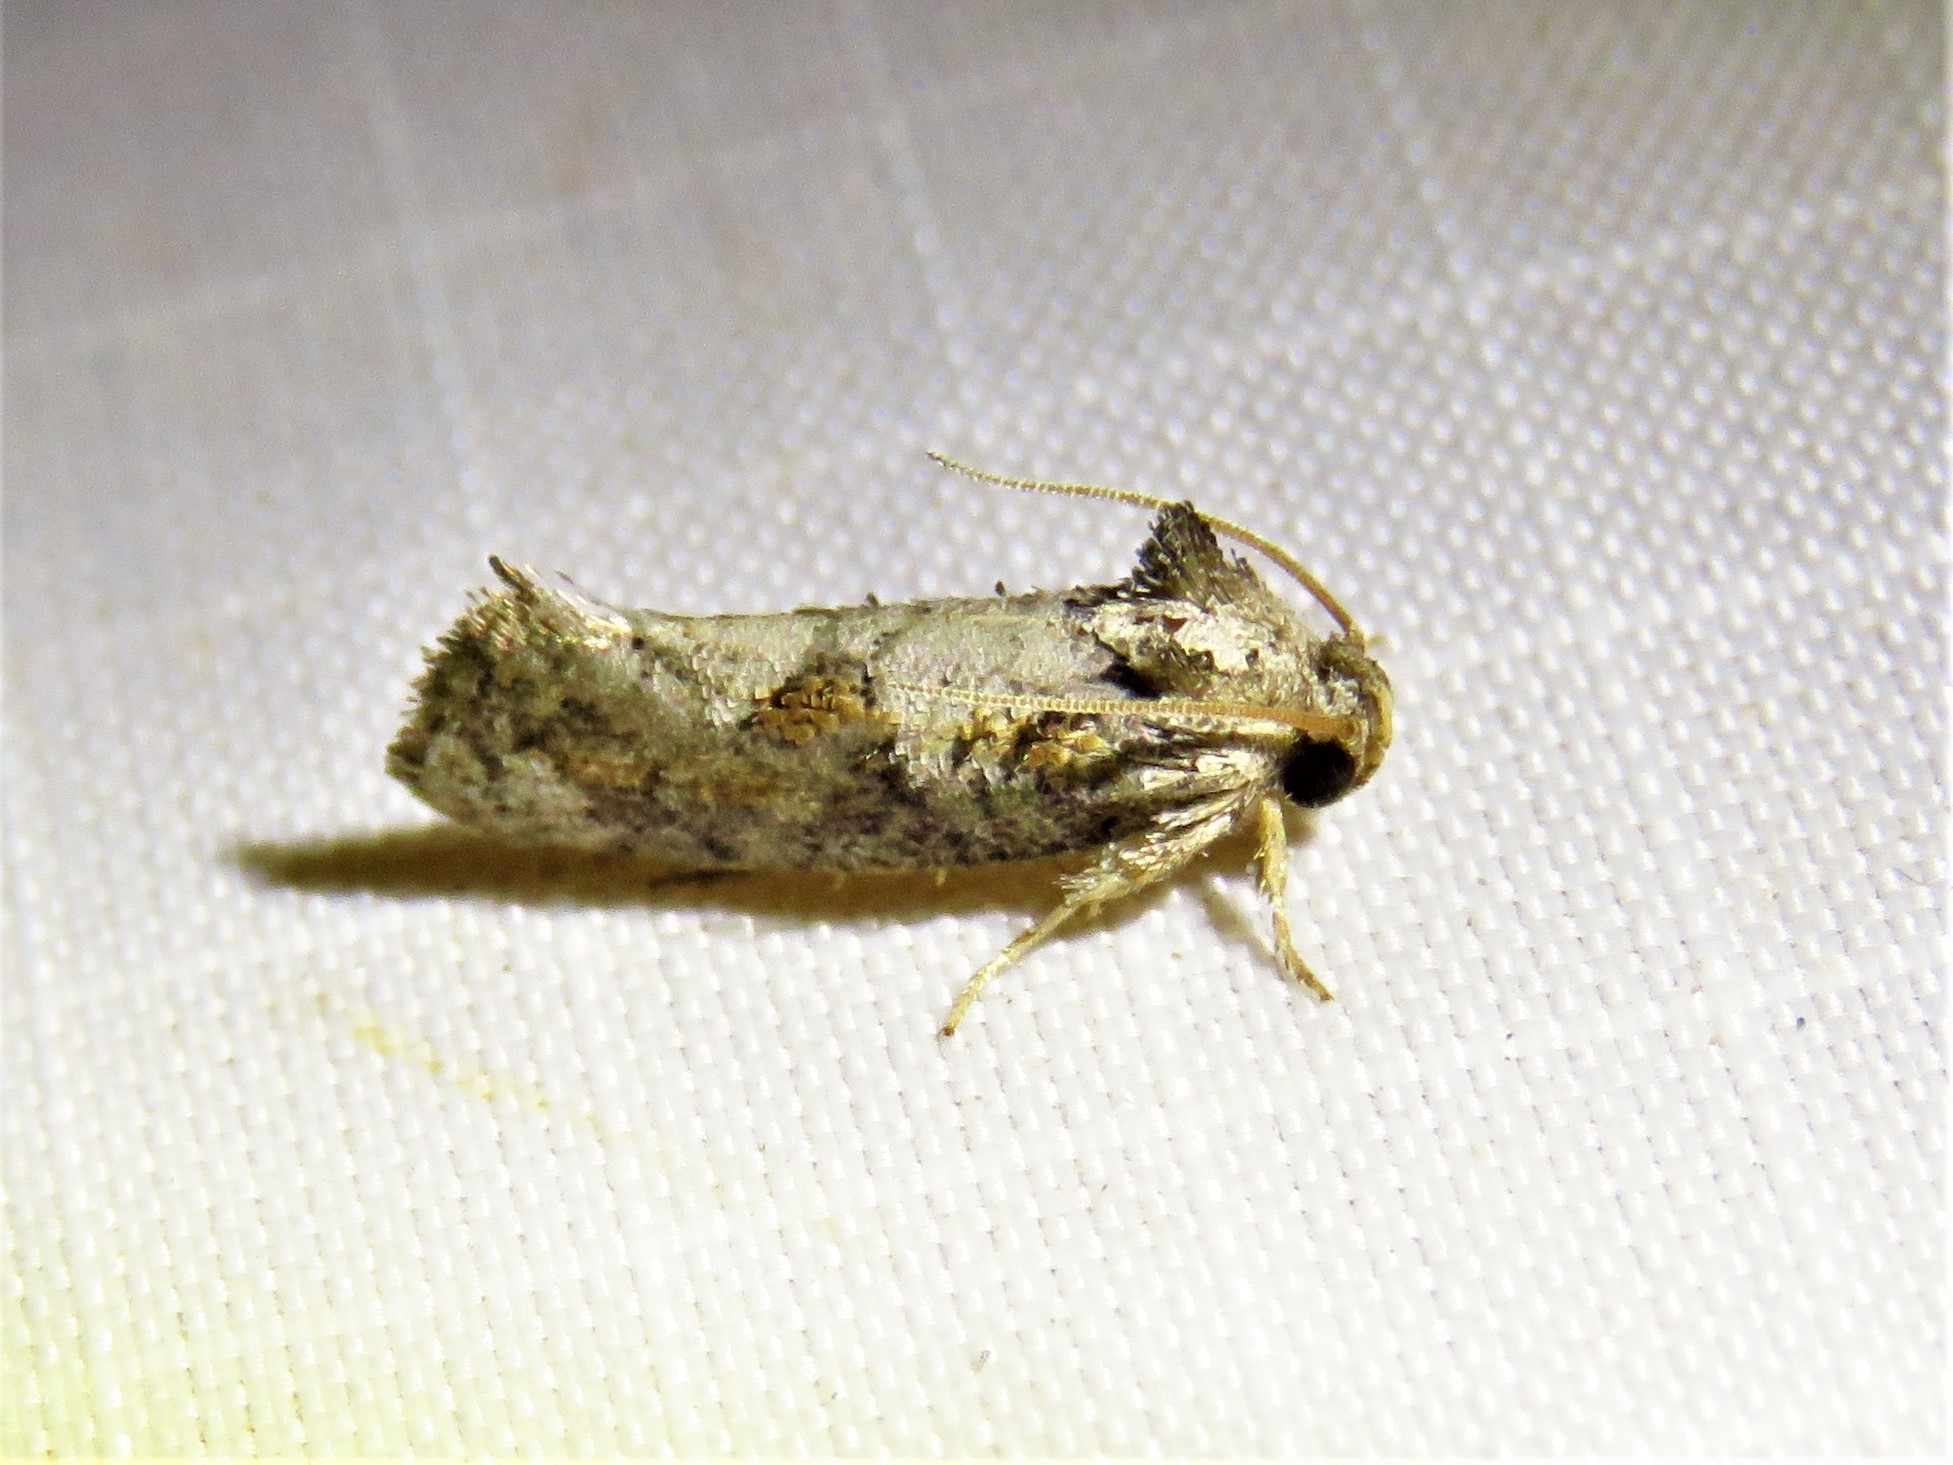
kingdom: Animalia
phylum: Arthropoda
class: Insecta
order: Lepidoptera
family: Tineidae
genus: Acrolophus
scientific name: Acrolophus piger
